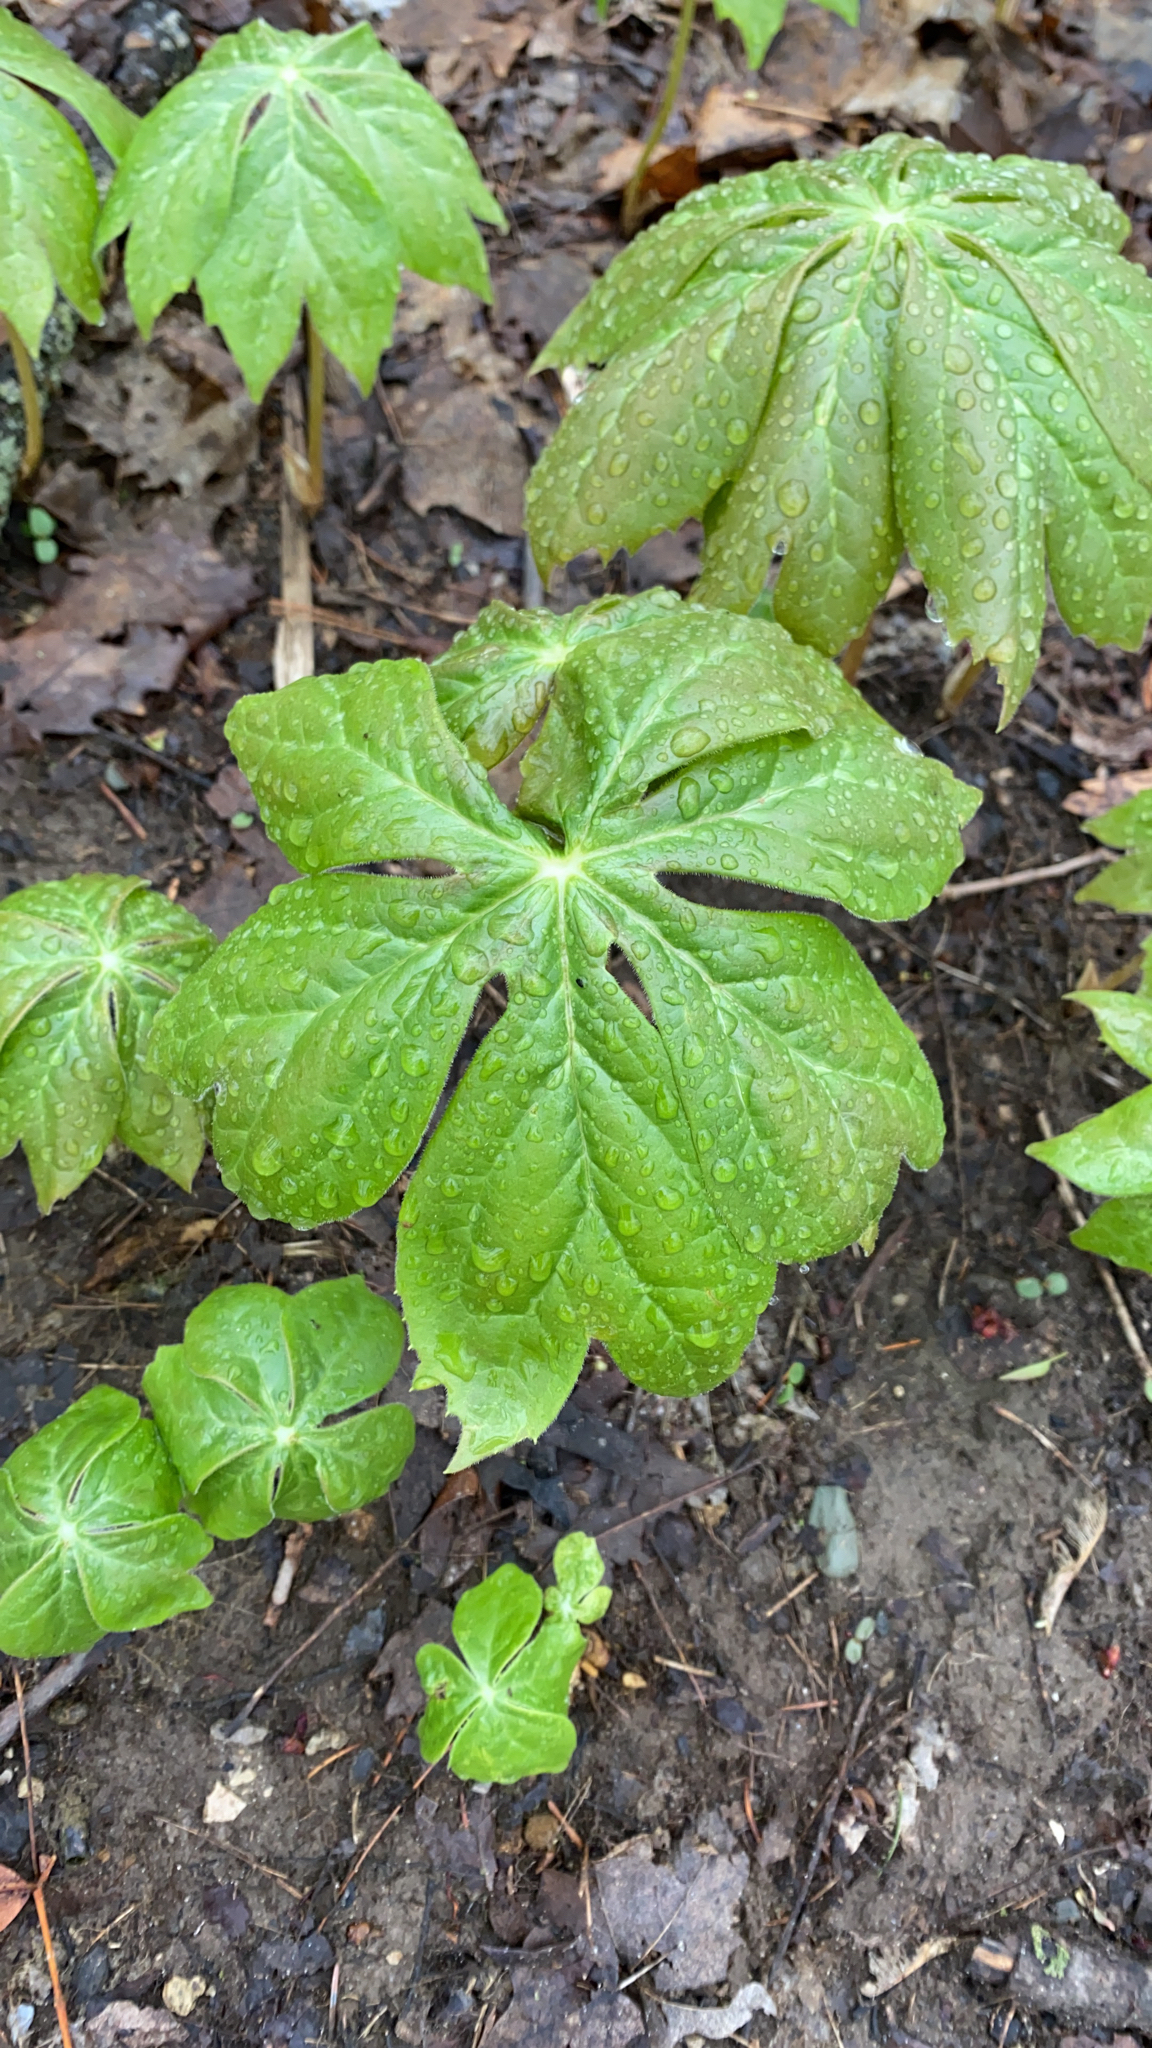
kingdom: Plantae
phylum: Tracheophyta
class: Magnoliopsida
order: Ranunculales
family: Berberidaceae
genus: Podophyllum
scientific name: Podophyllum peltatum
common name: Wild mandrake
